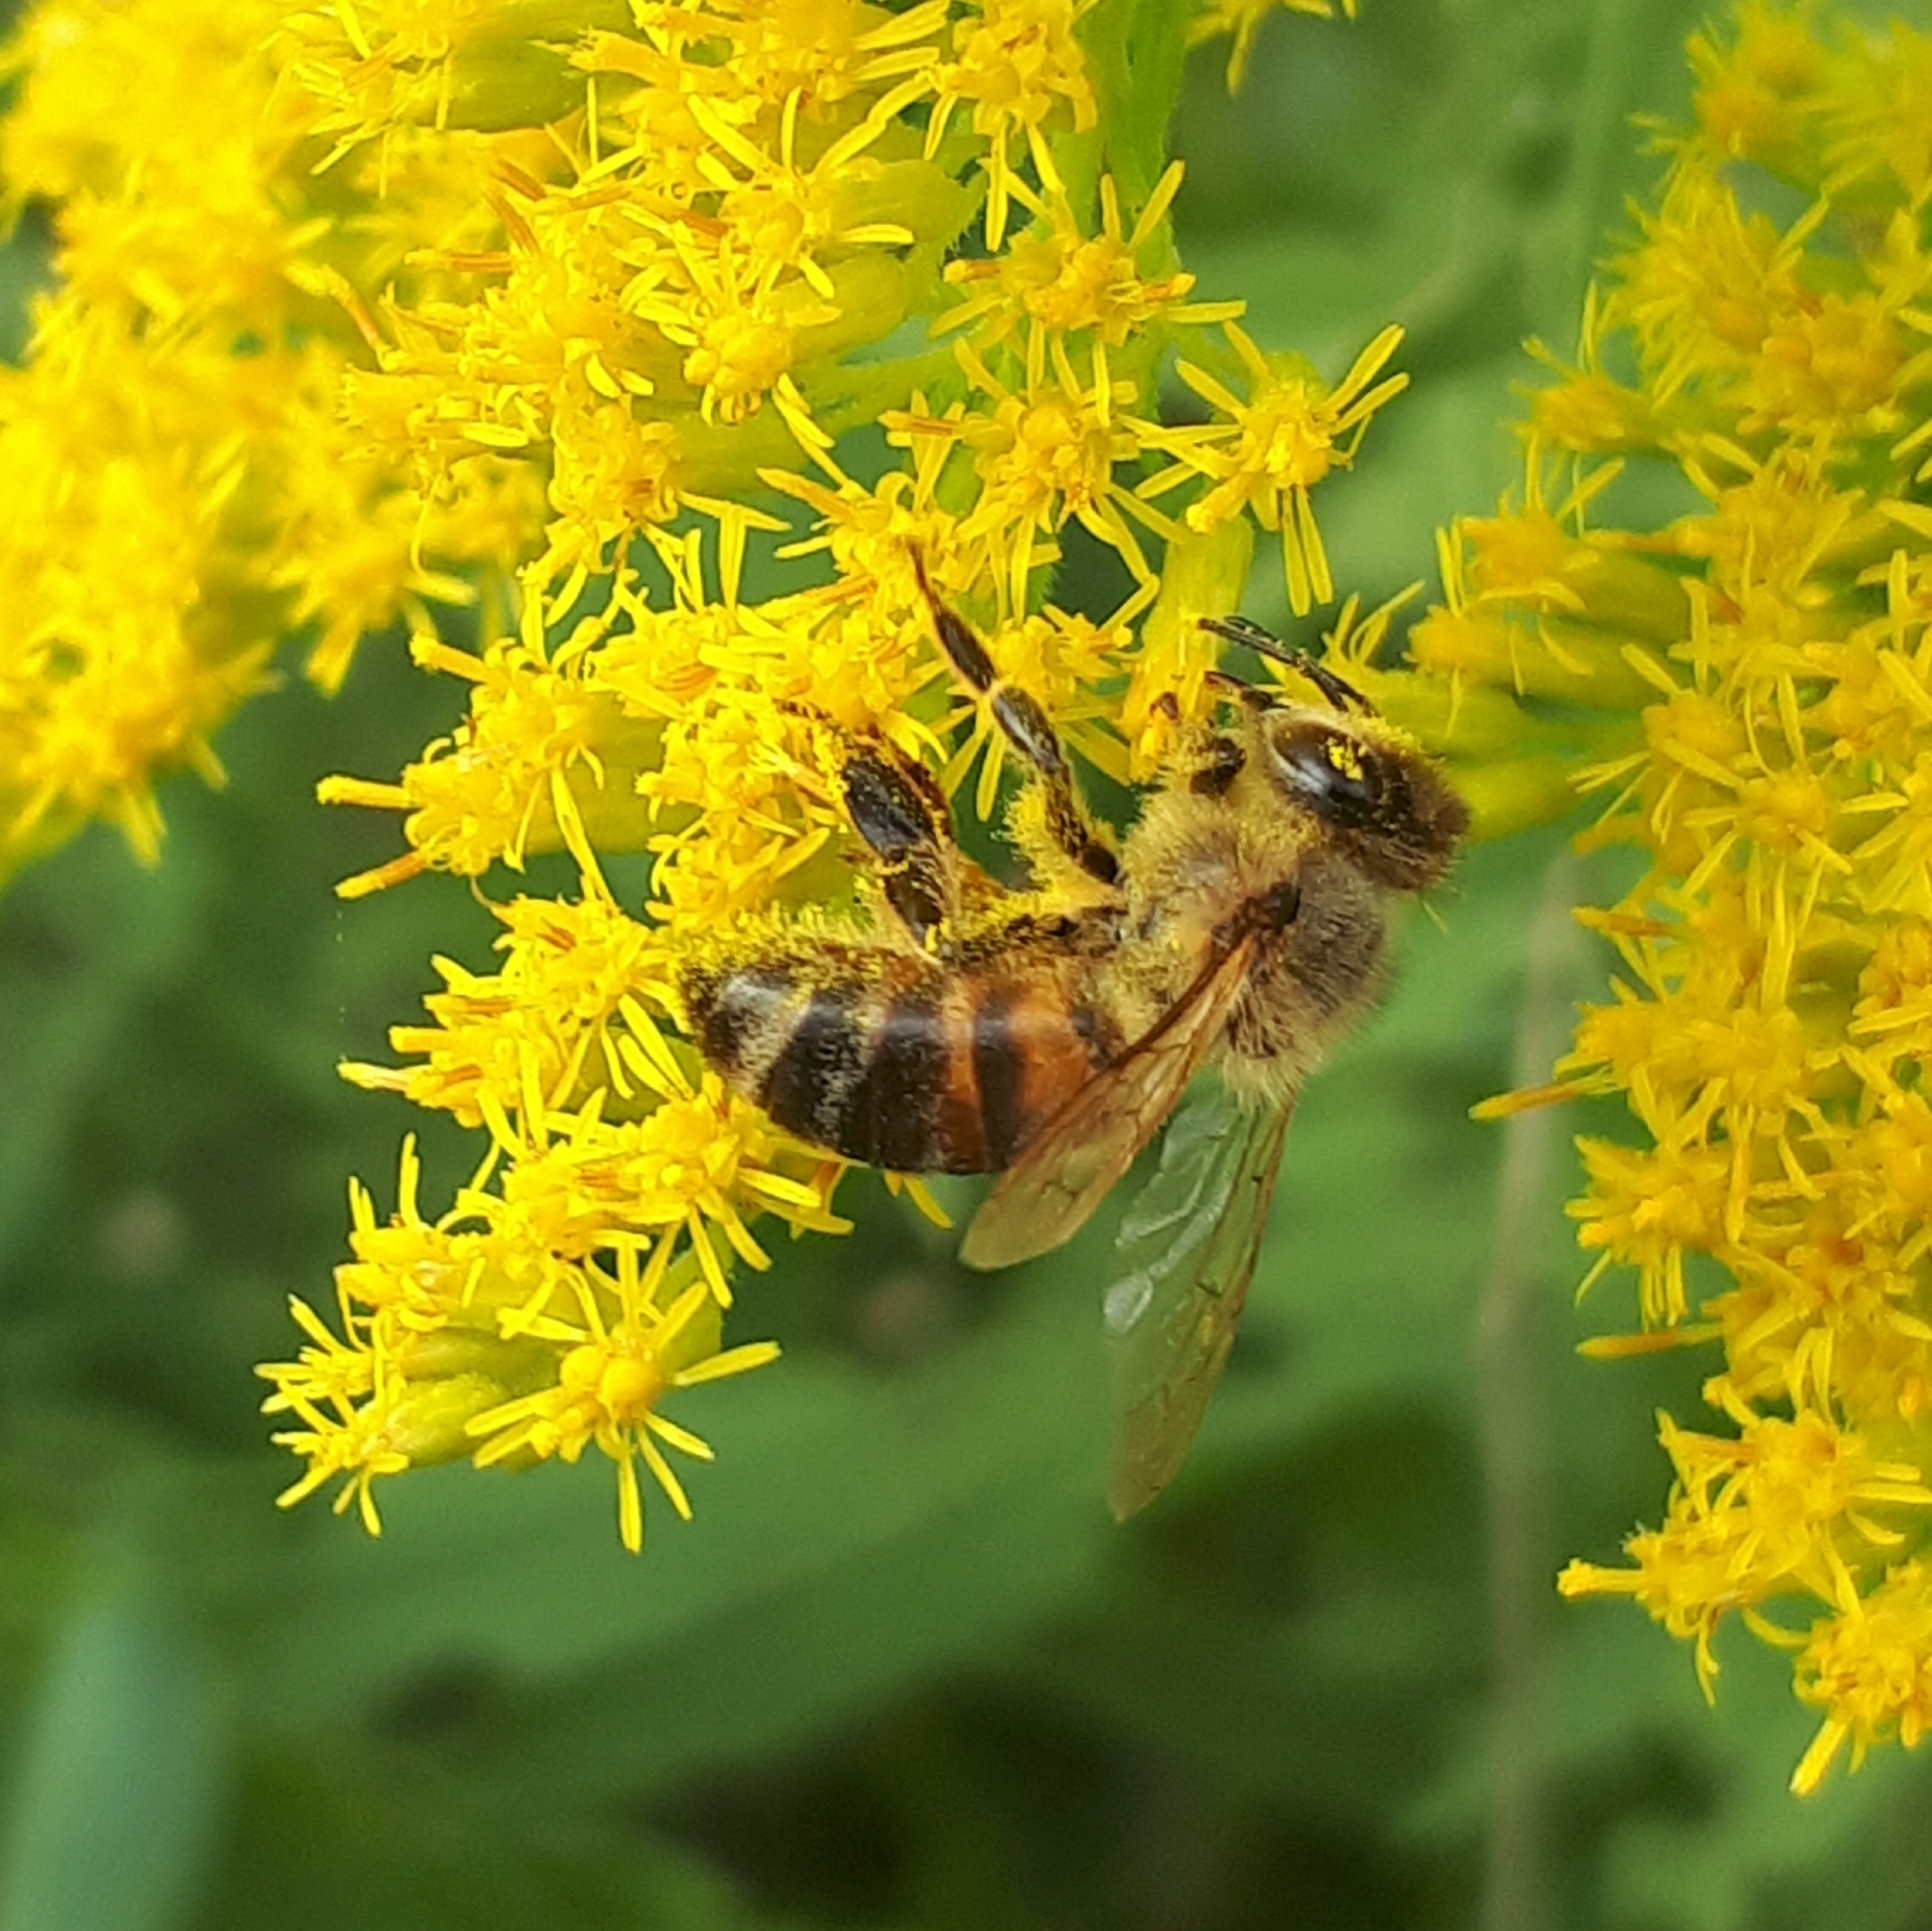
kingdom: Animalia
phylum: Arthropoda
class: Insecta
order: Hymenoptera
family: Apidae
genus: Apis
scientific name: Apis mellifera
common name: Honey bee
